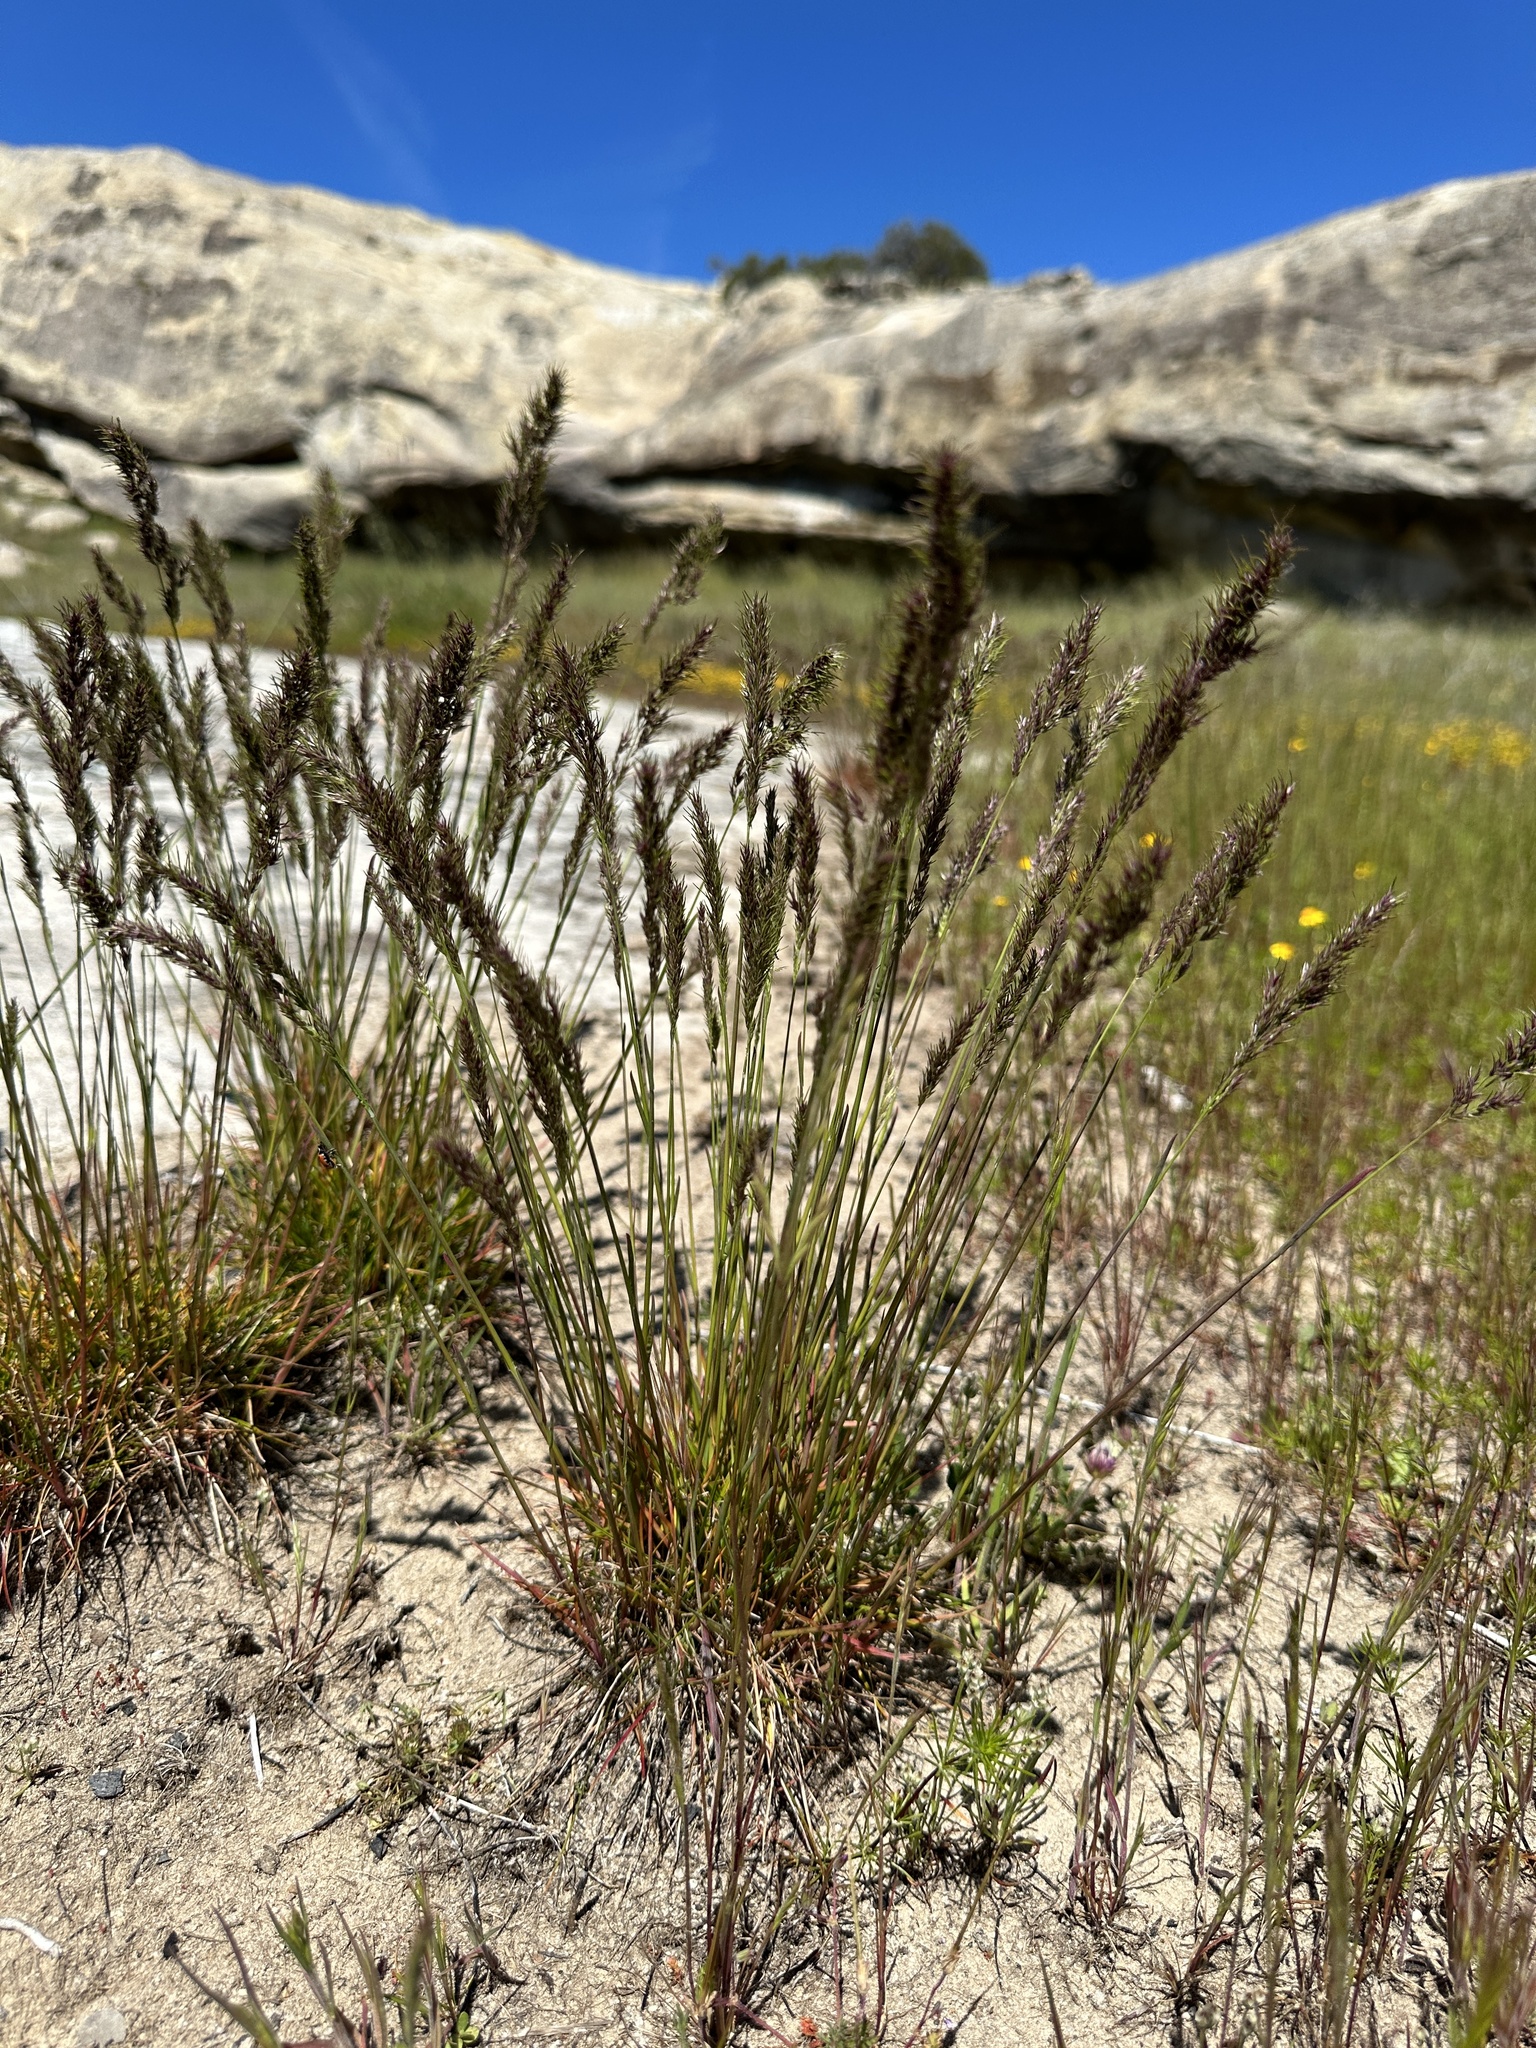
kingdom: Plantae
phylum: Tracheophyta
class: Liliopsida
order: Poales
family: Poaceae
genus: Poa
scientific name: Poa bulbosa
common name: Bulbous bluegrass
